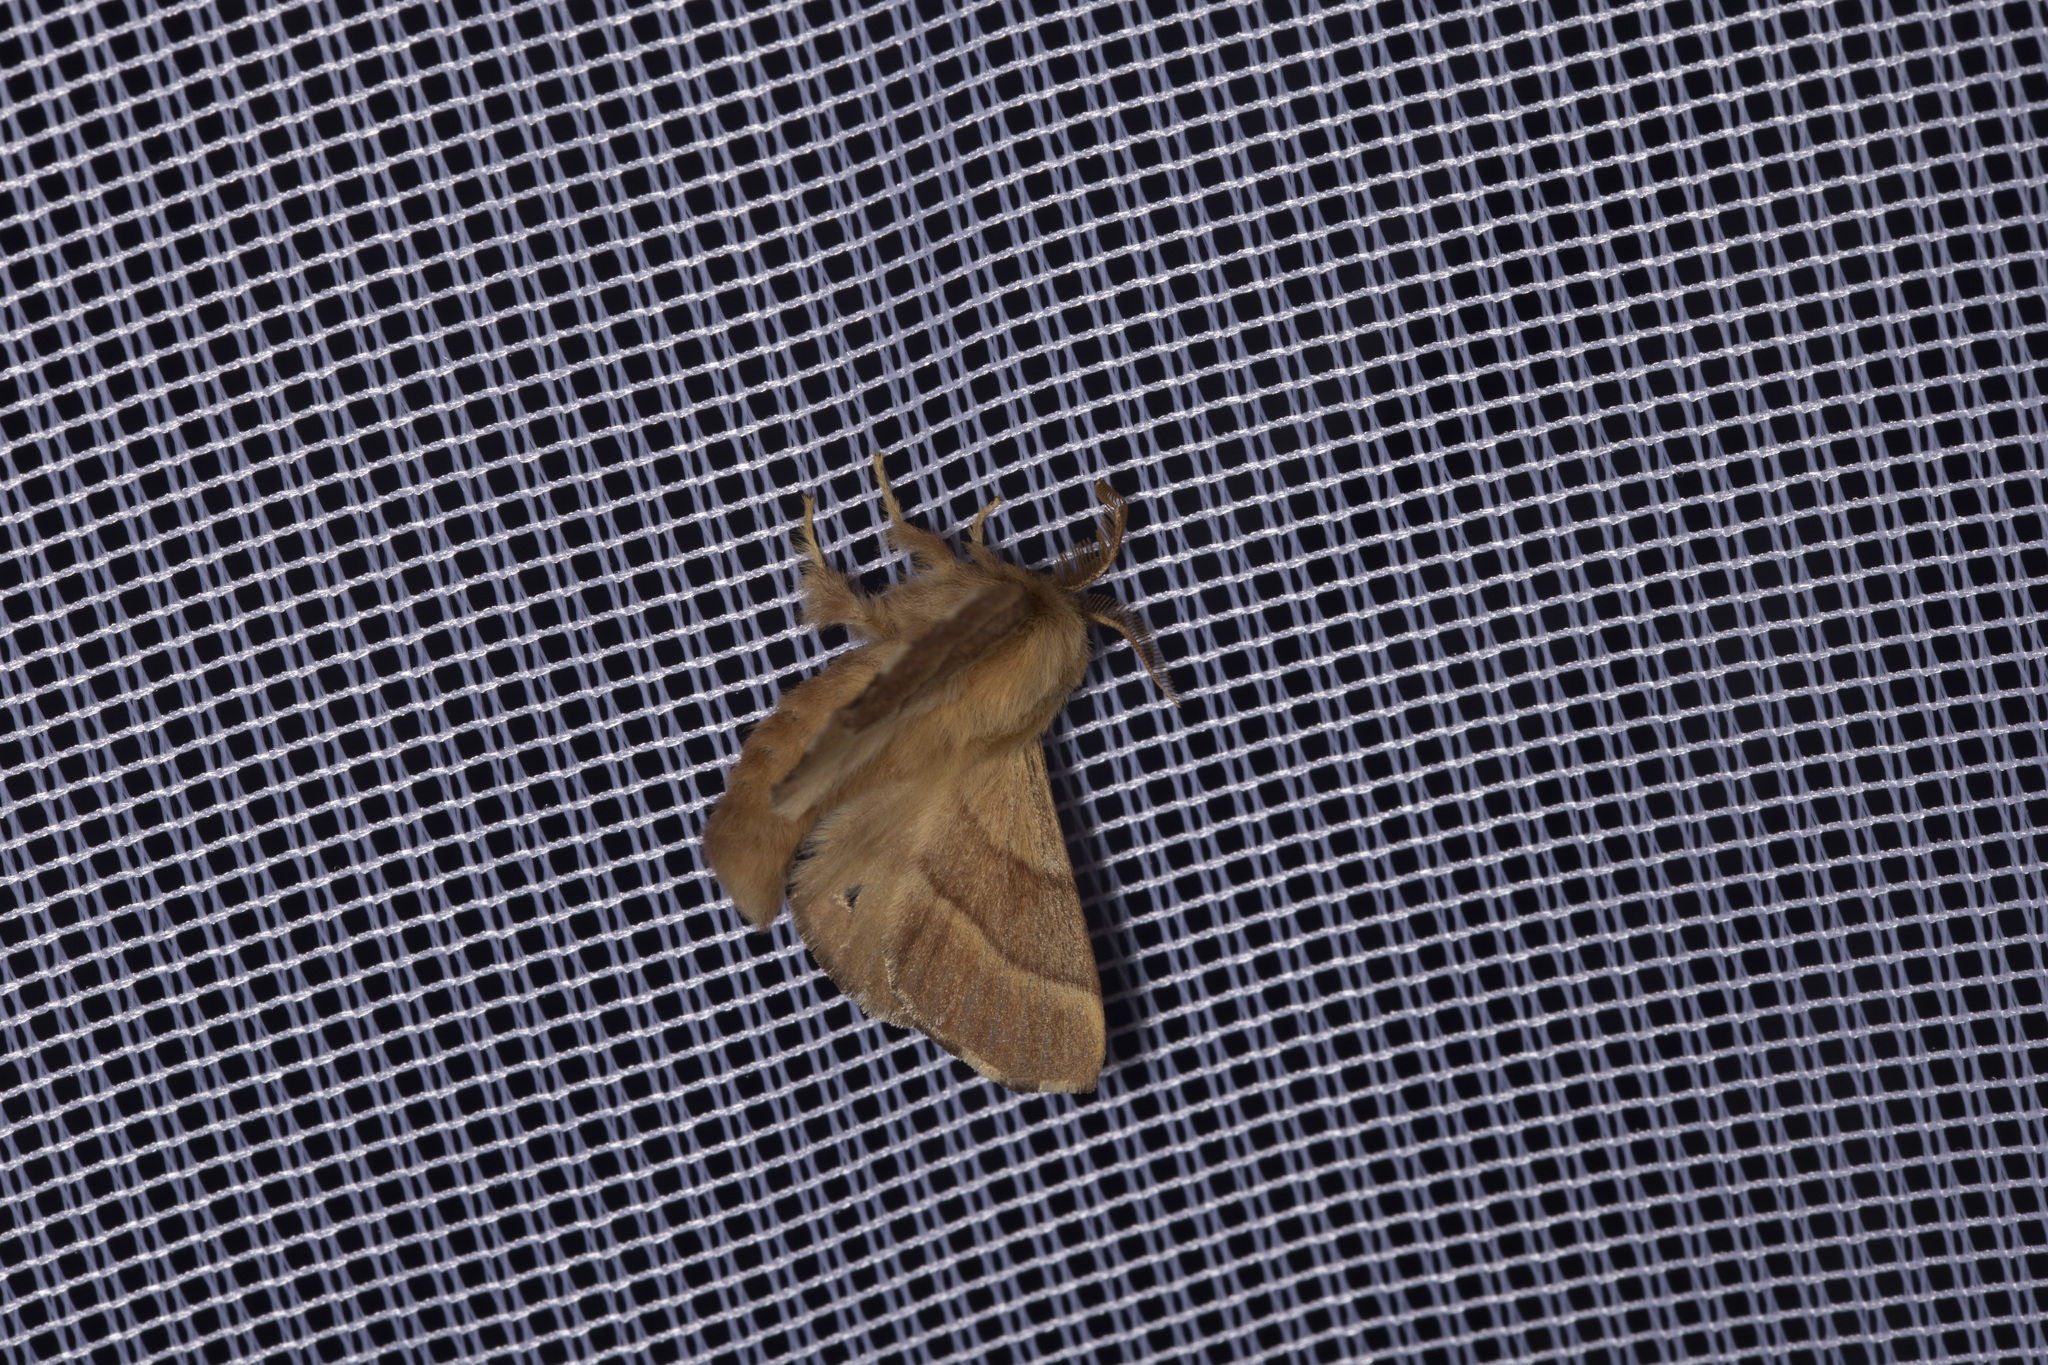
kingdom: Animalia
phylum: Arthropoda
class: Insecta
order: Lepidoptera
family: Lasiocampidae
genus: Malacosoma
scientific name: Malacosoma neustria
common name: The lackey
